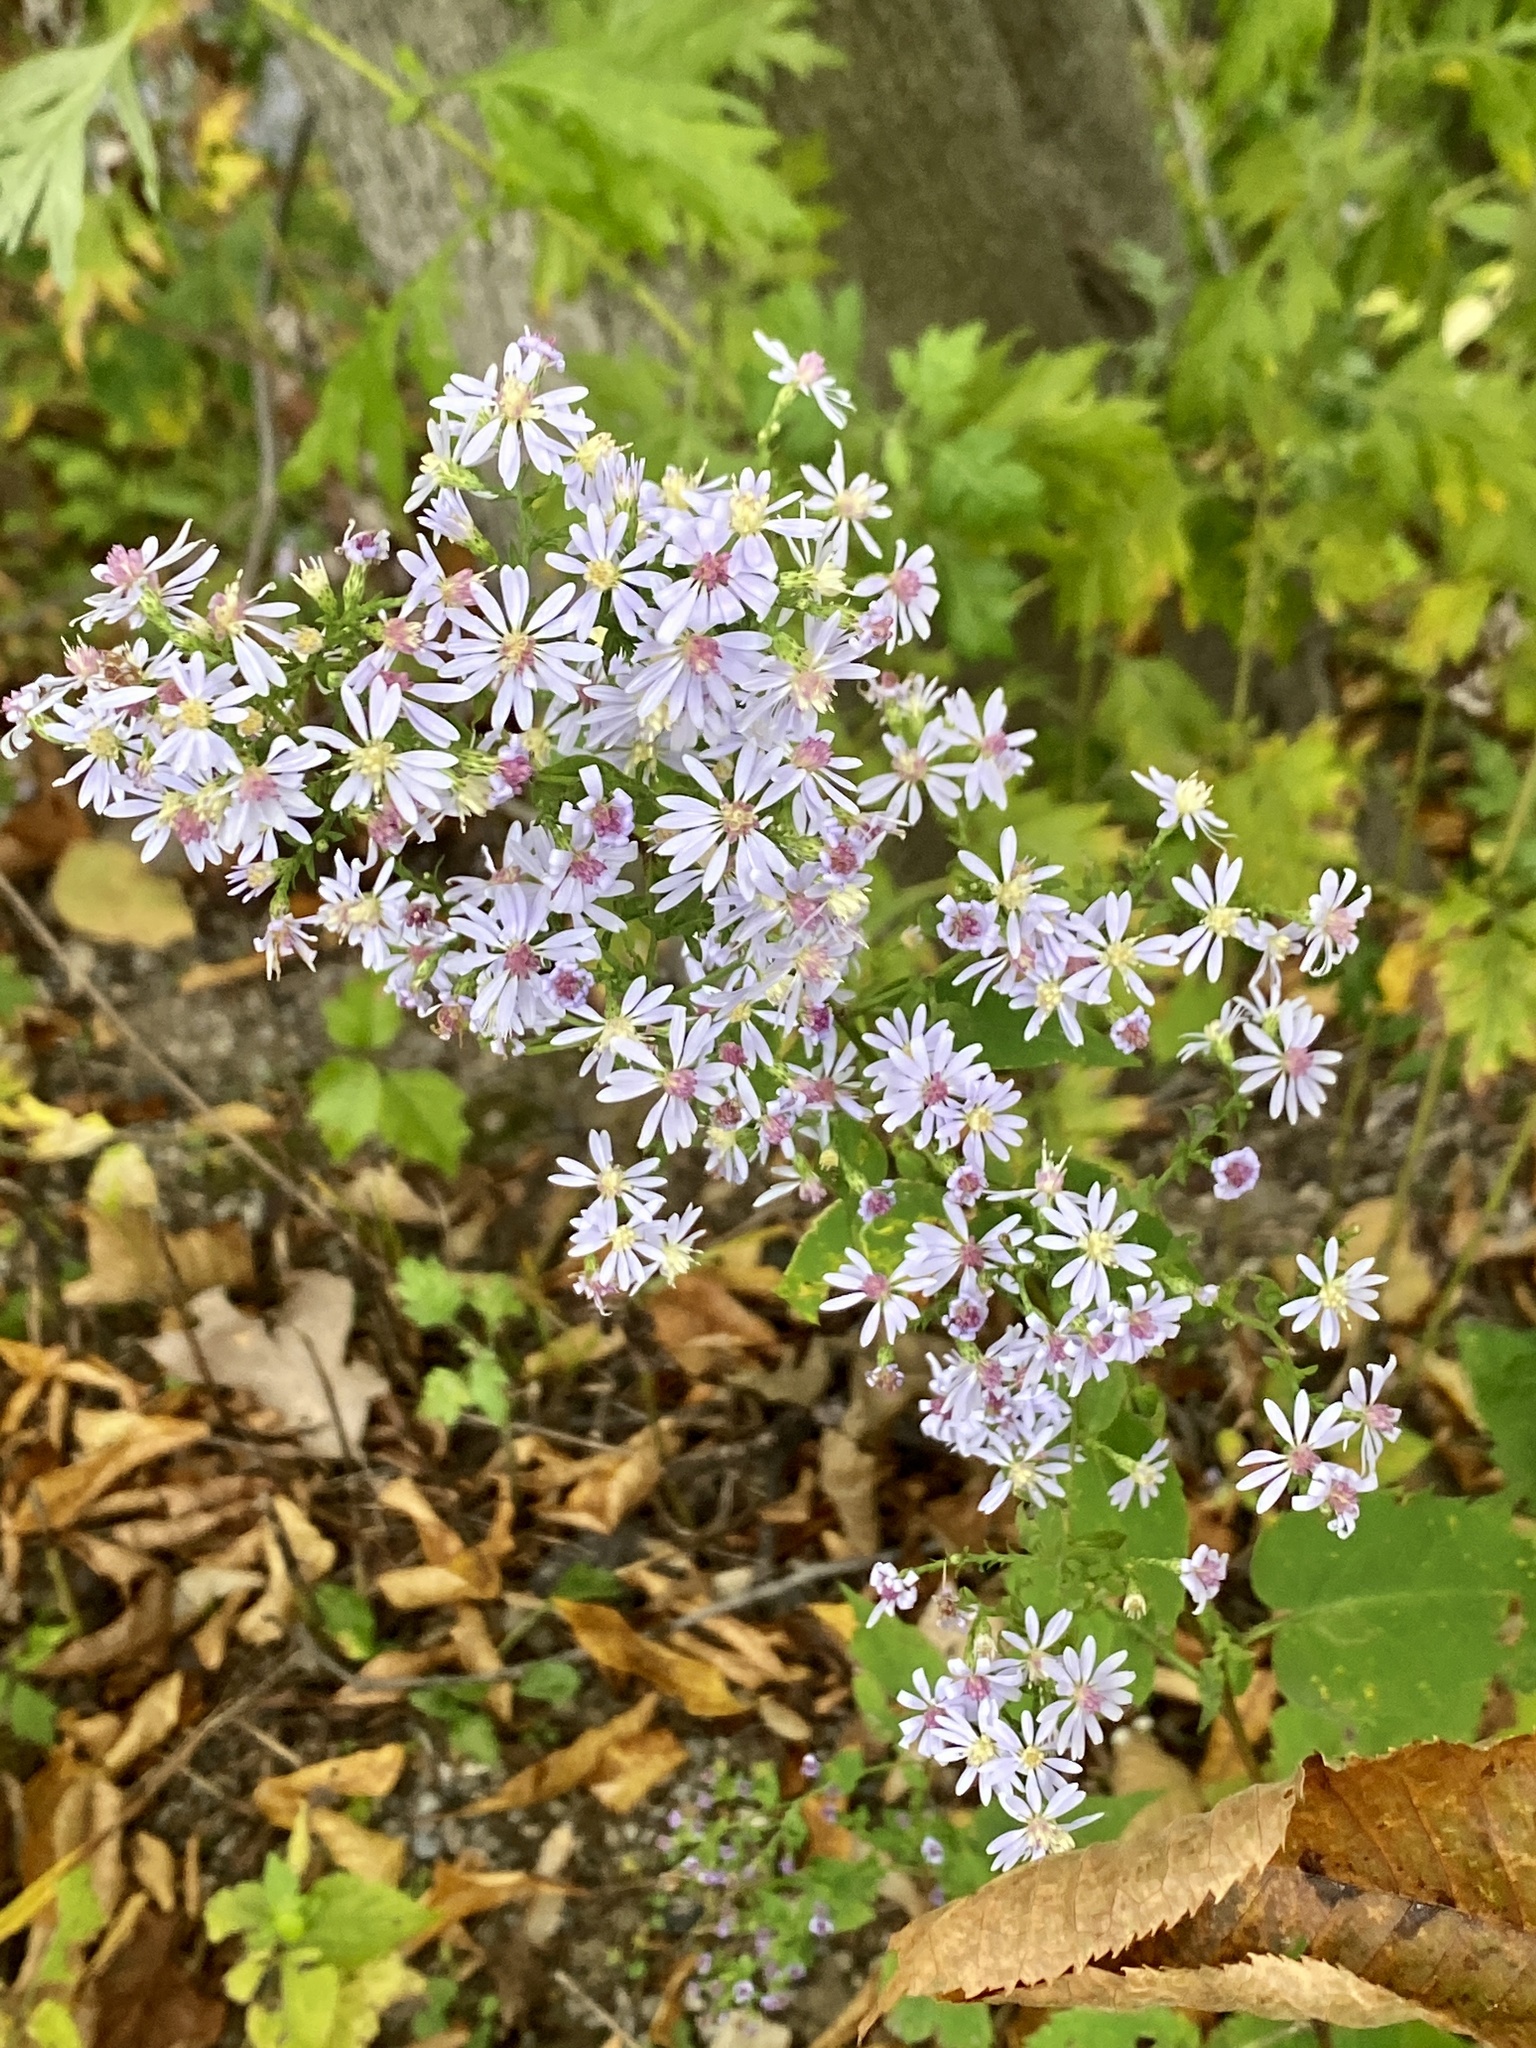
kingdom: Plantae
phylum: Tracheophyta
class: Magnoliopsida
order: Asterales
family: Asteraceae
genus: Symphyotrichum
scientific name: Symphyotrichum cordifolium
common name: Beeweed
